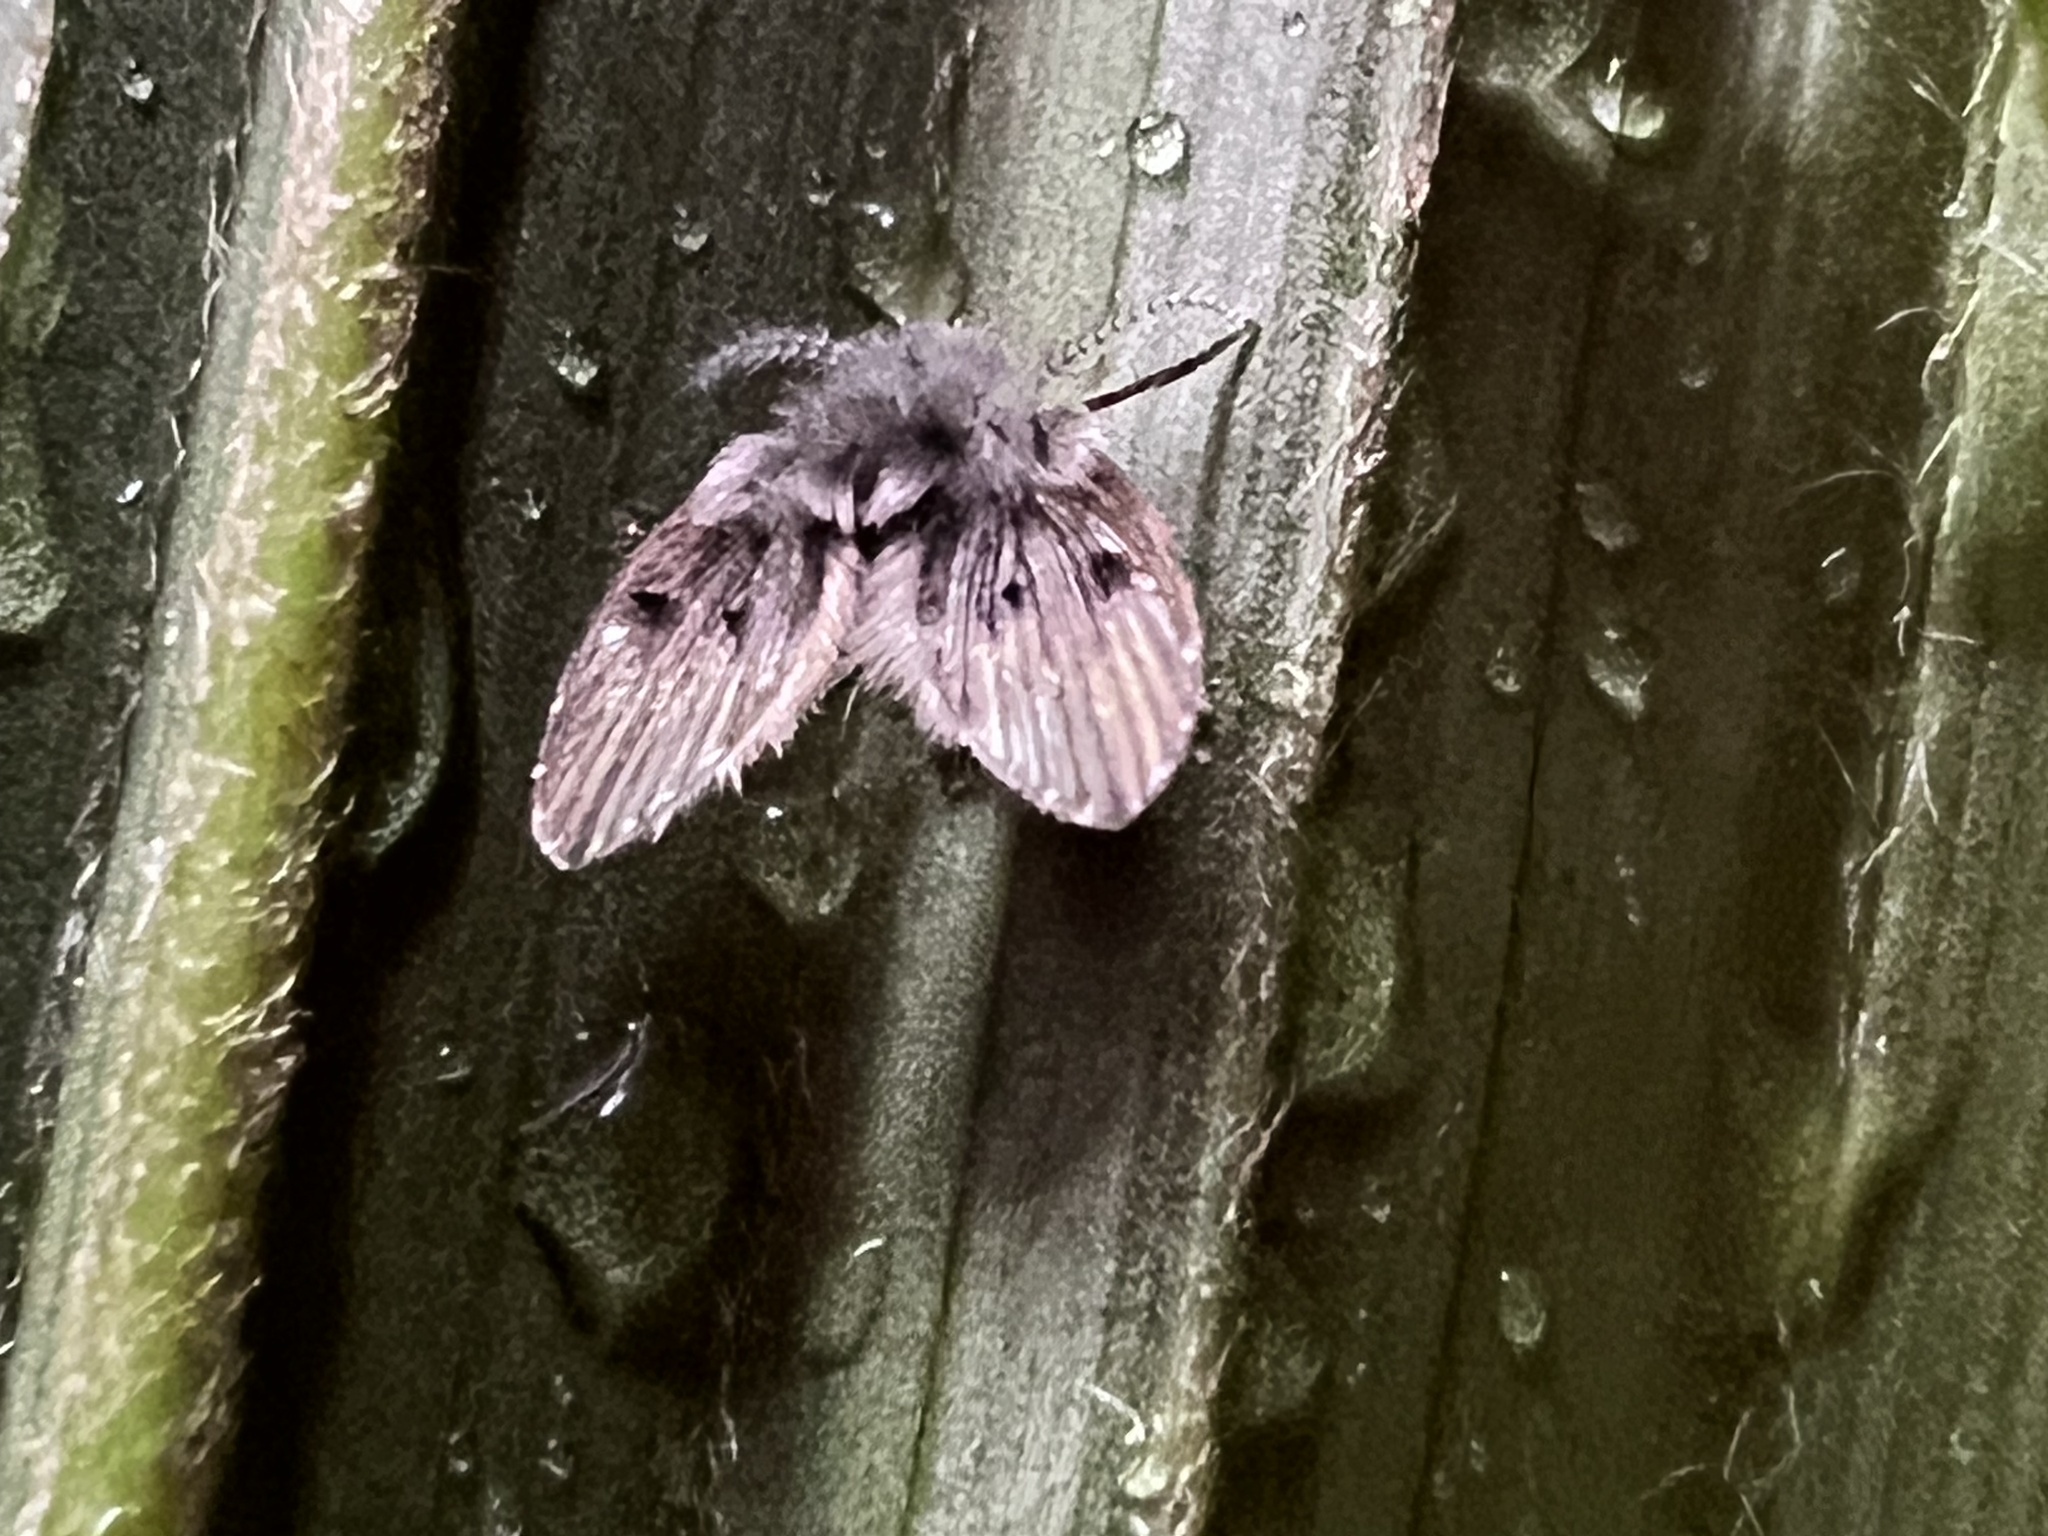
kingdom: Animalia
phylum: Arthropoda
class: Insecta
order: Diptera
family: Psychodidae
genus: Clogmia
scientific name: Clogmia albipunctatus
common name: White-spotted moth fly
